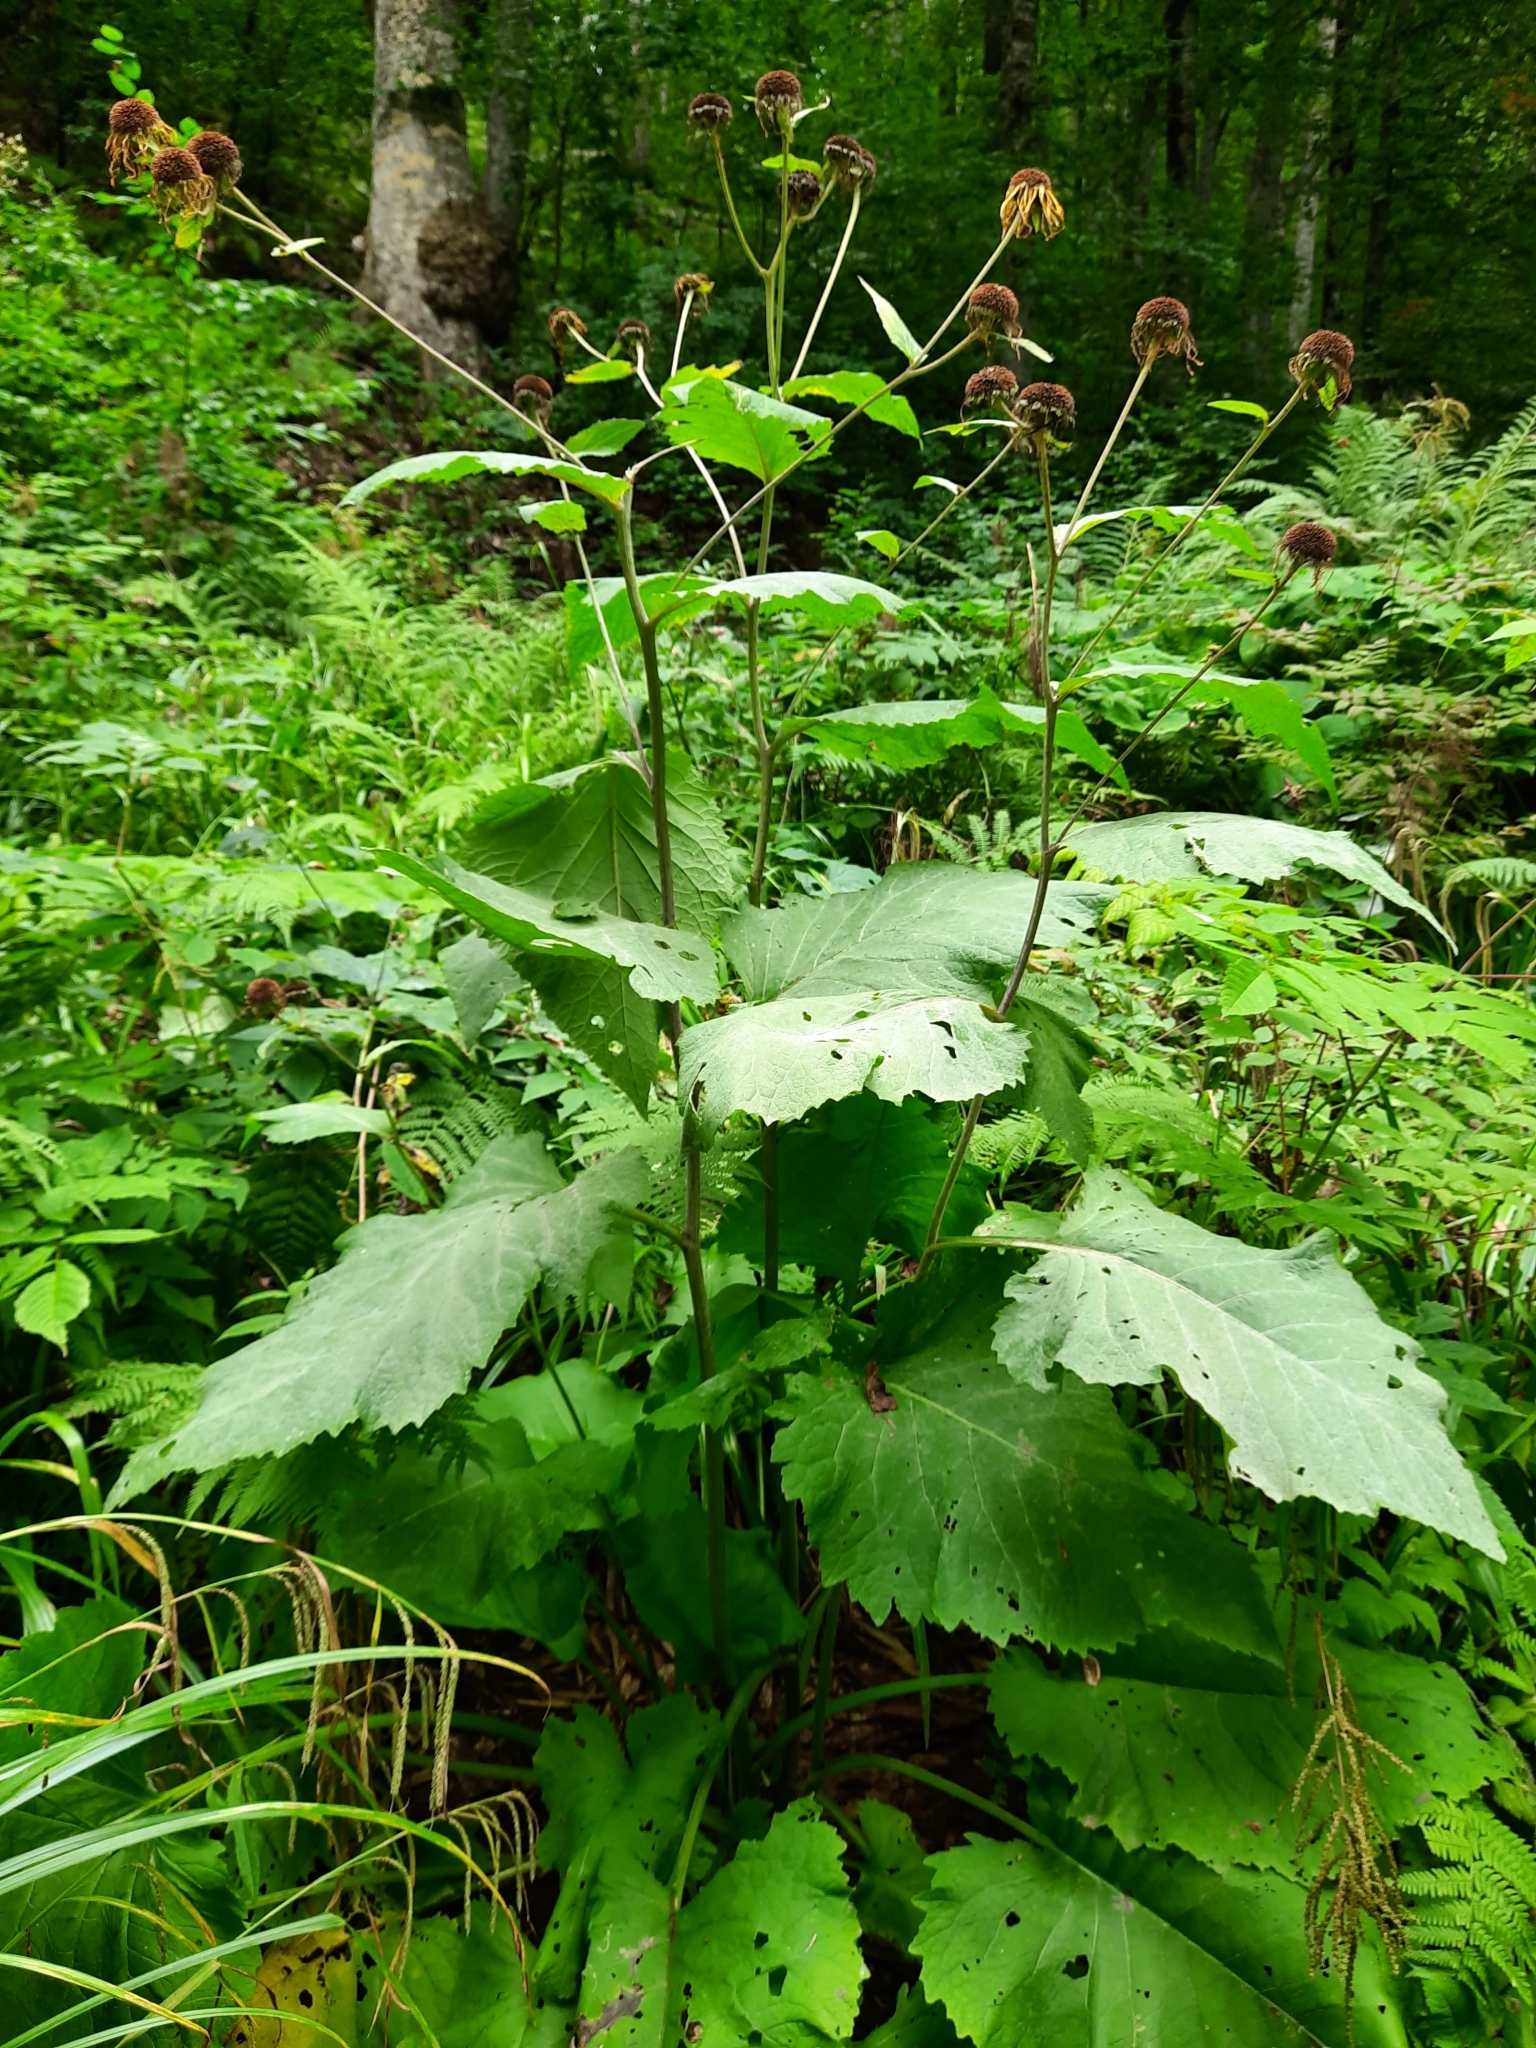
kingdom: Plantae
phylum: Tracheophyta
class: Magnoliopsida
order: Asterales
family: Asteraceae
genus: Telekia
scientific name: Telekia speciosa
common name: Yellow oxeye
